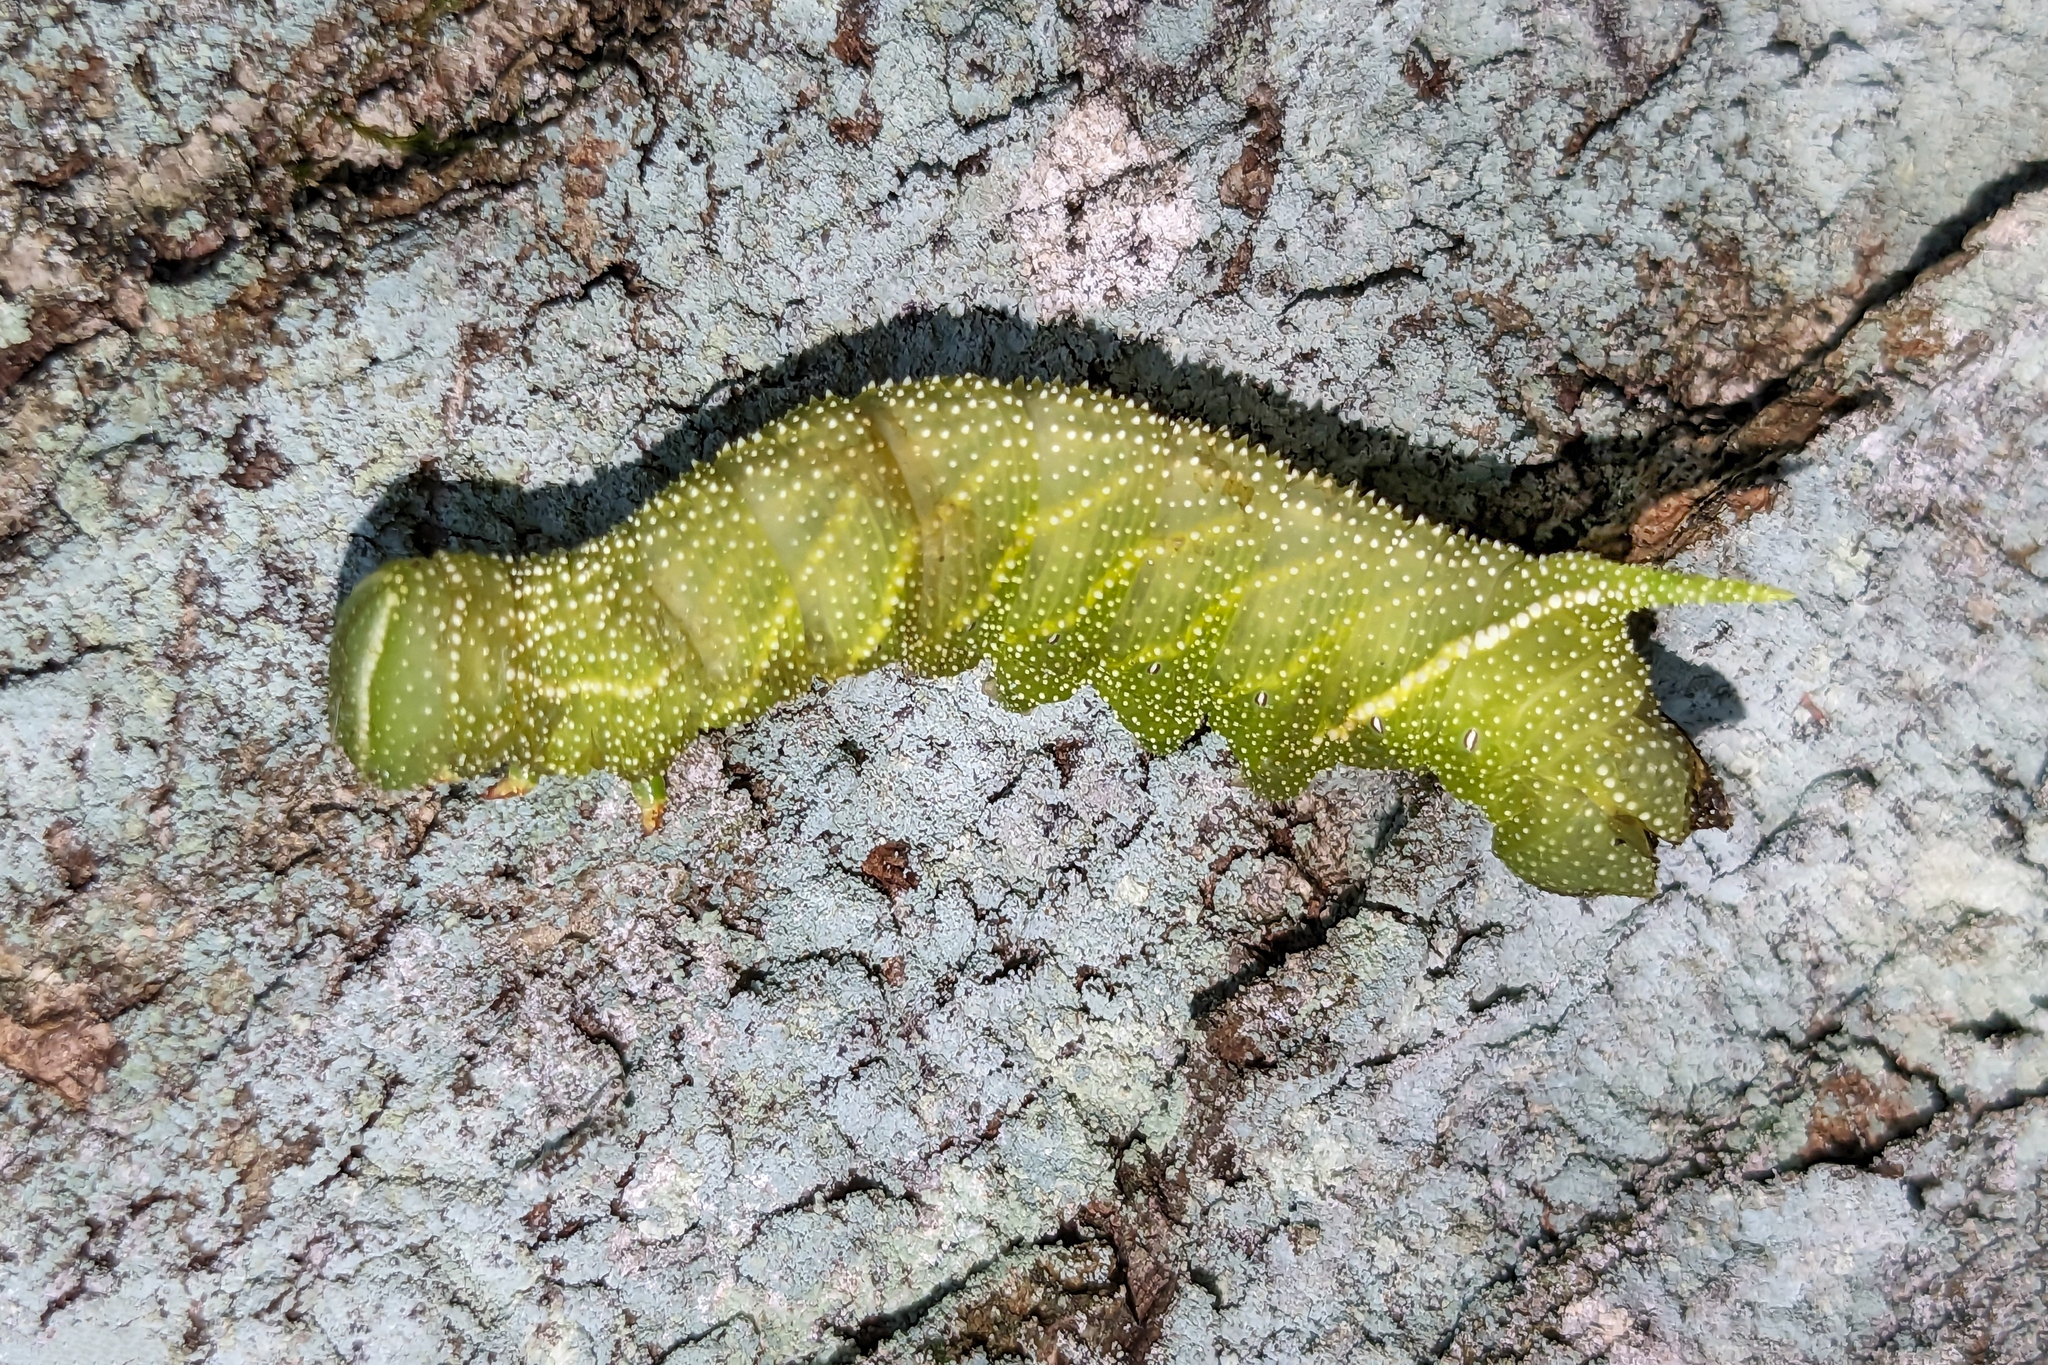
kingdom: Animalia
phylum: Arthropoda
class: Insecta
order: Lepidoptera
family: Sphingidae
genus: Paonias
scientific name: Paonias excaecata
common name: Blind-eyed sphinx
